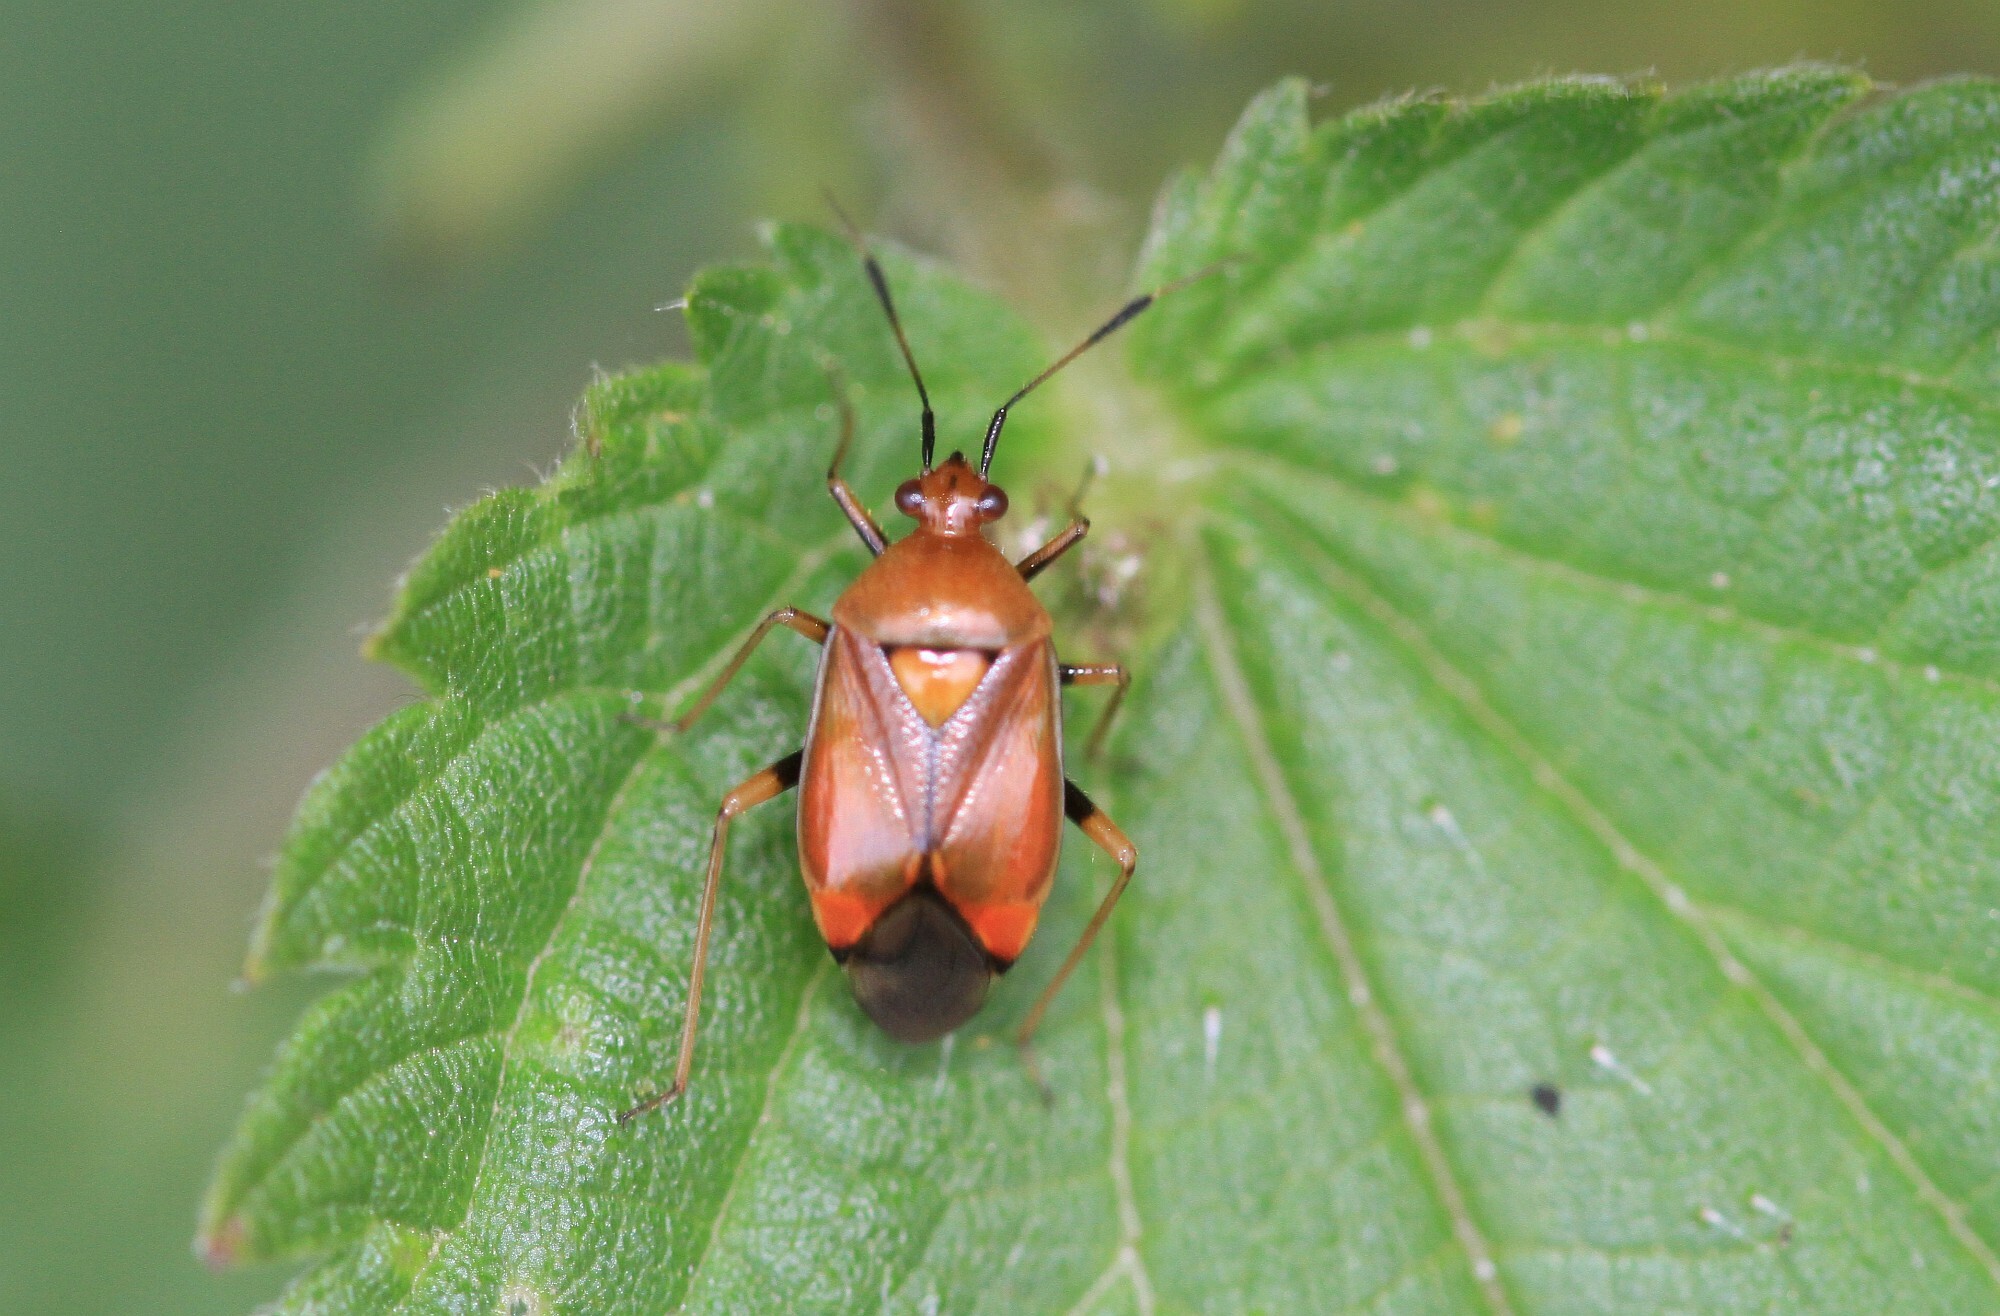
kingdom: Animalia
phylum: Arthropoda
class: Insecta
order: Hemiptera
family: Miridae
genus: Deraeocoris
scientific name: Deraeocoris ruber
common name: Plant bug
